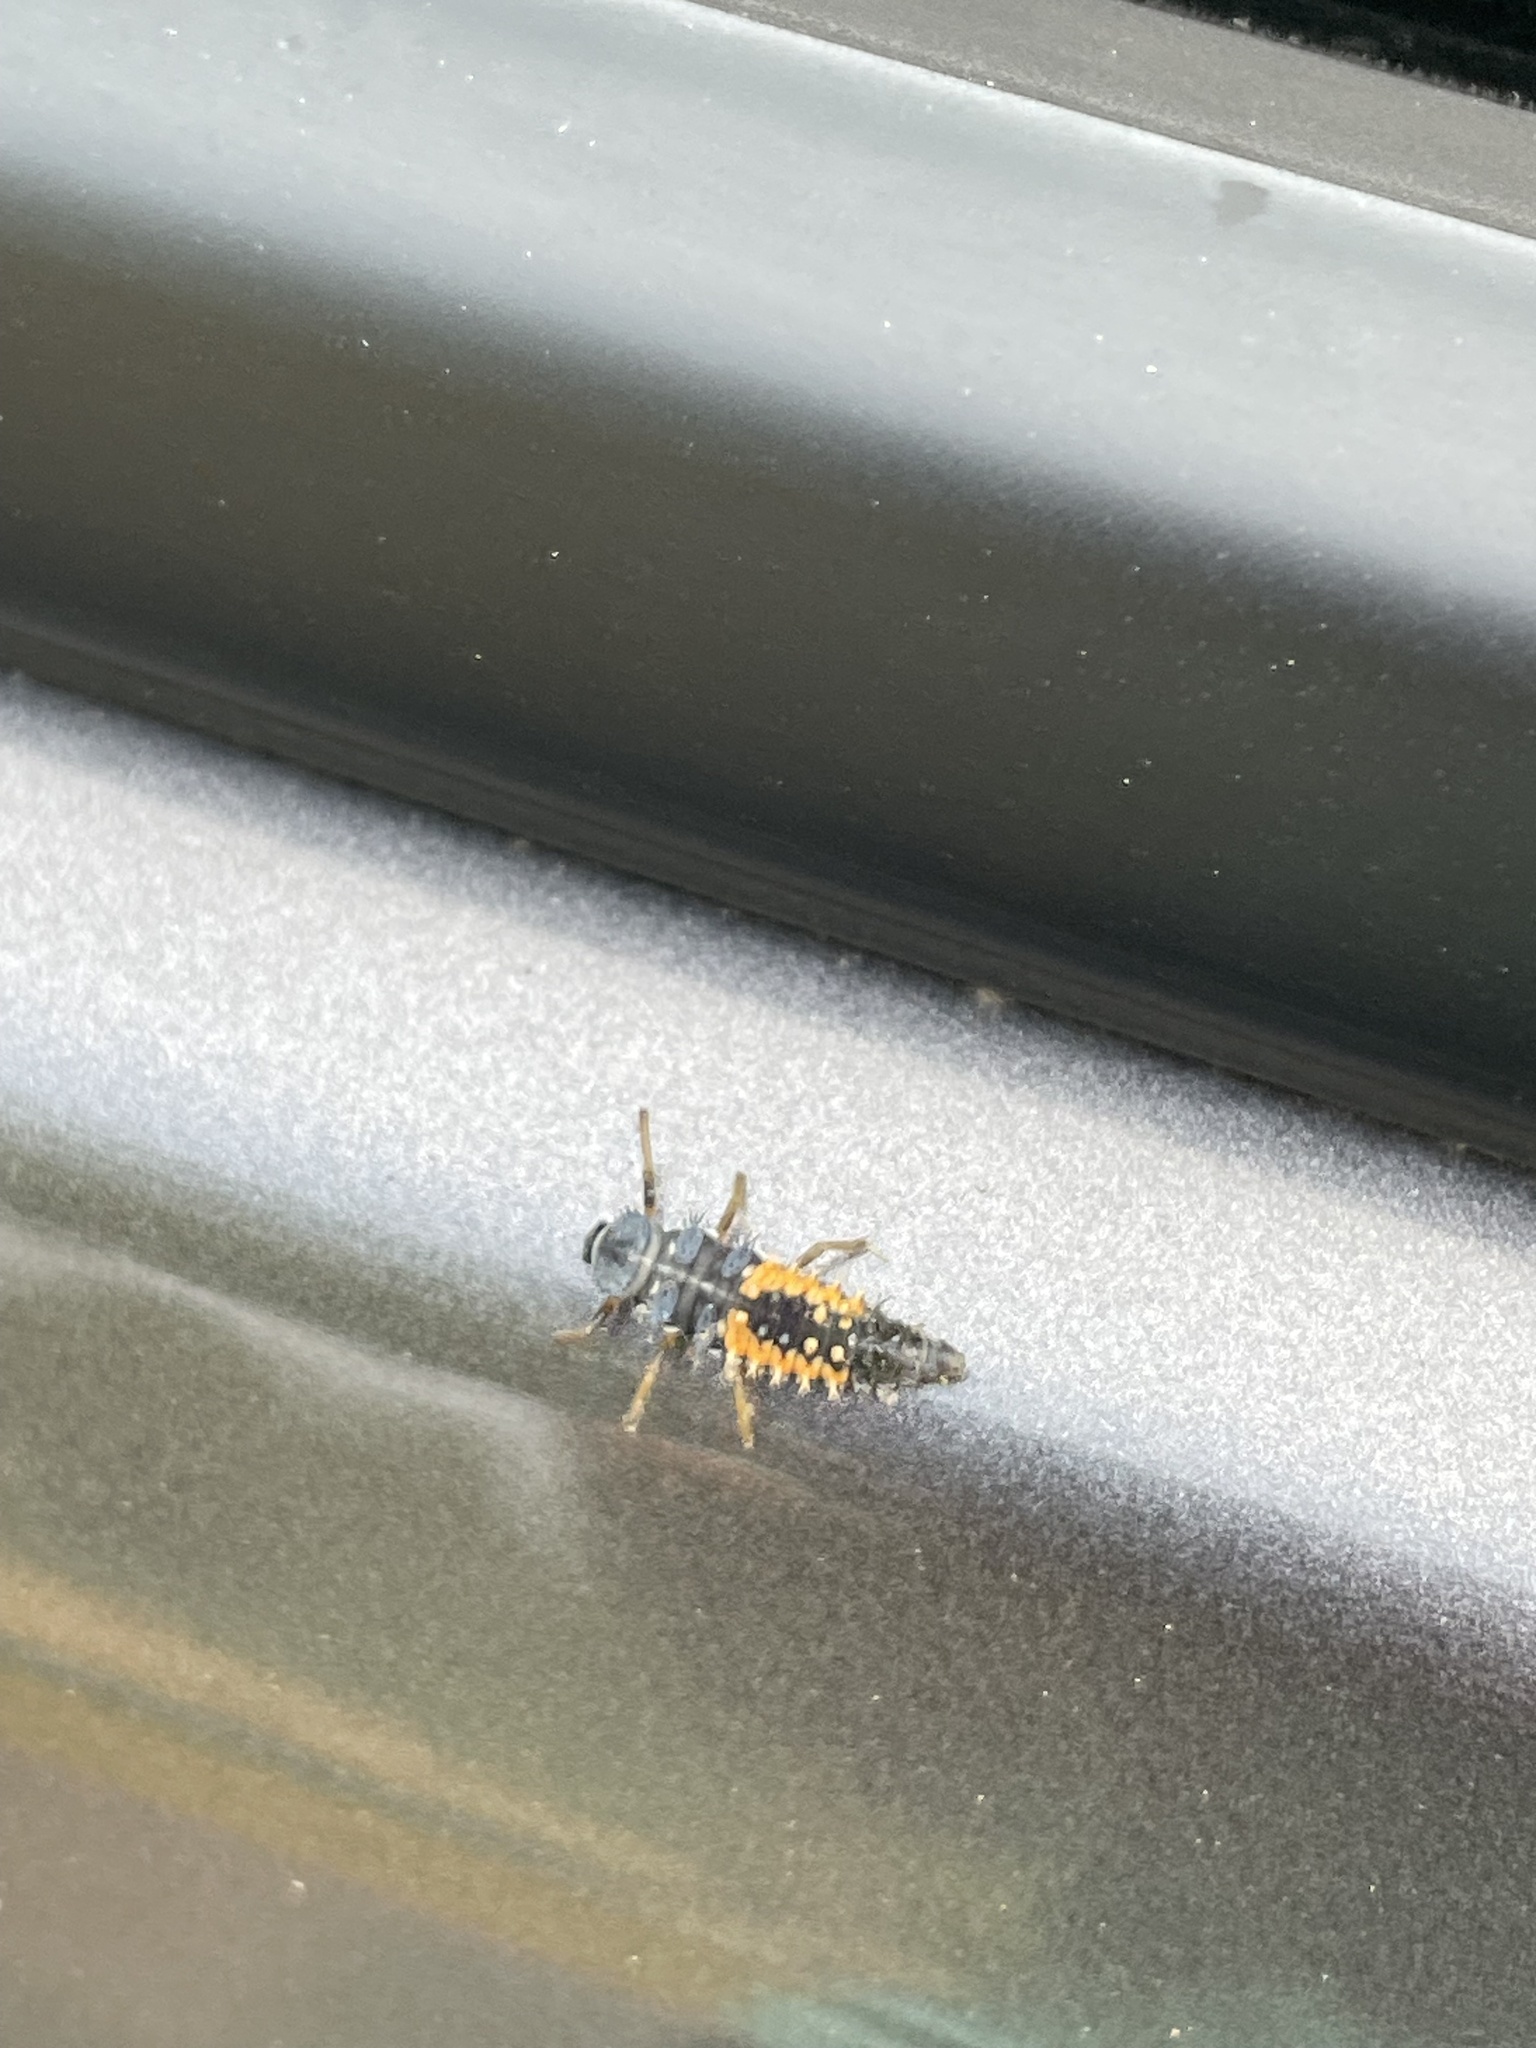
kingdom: Animalia
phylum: Arthropoda
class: Insecta
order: Coleoptera
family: Coccinellidae
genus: Harmonia
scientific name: Harmonia axyridis
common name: Harlequin ladybird
